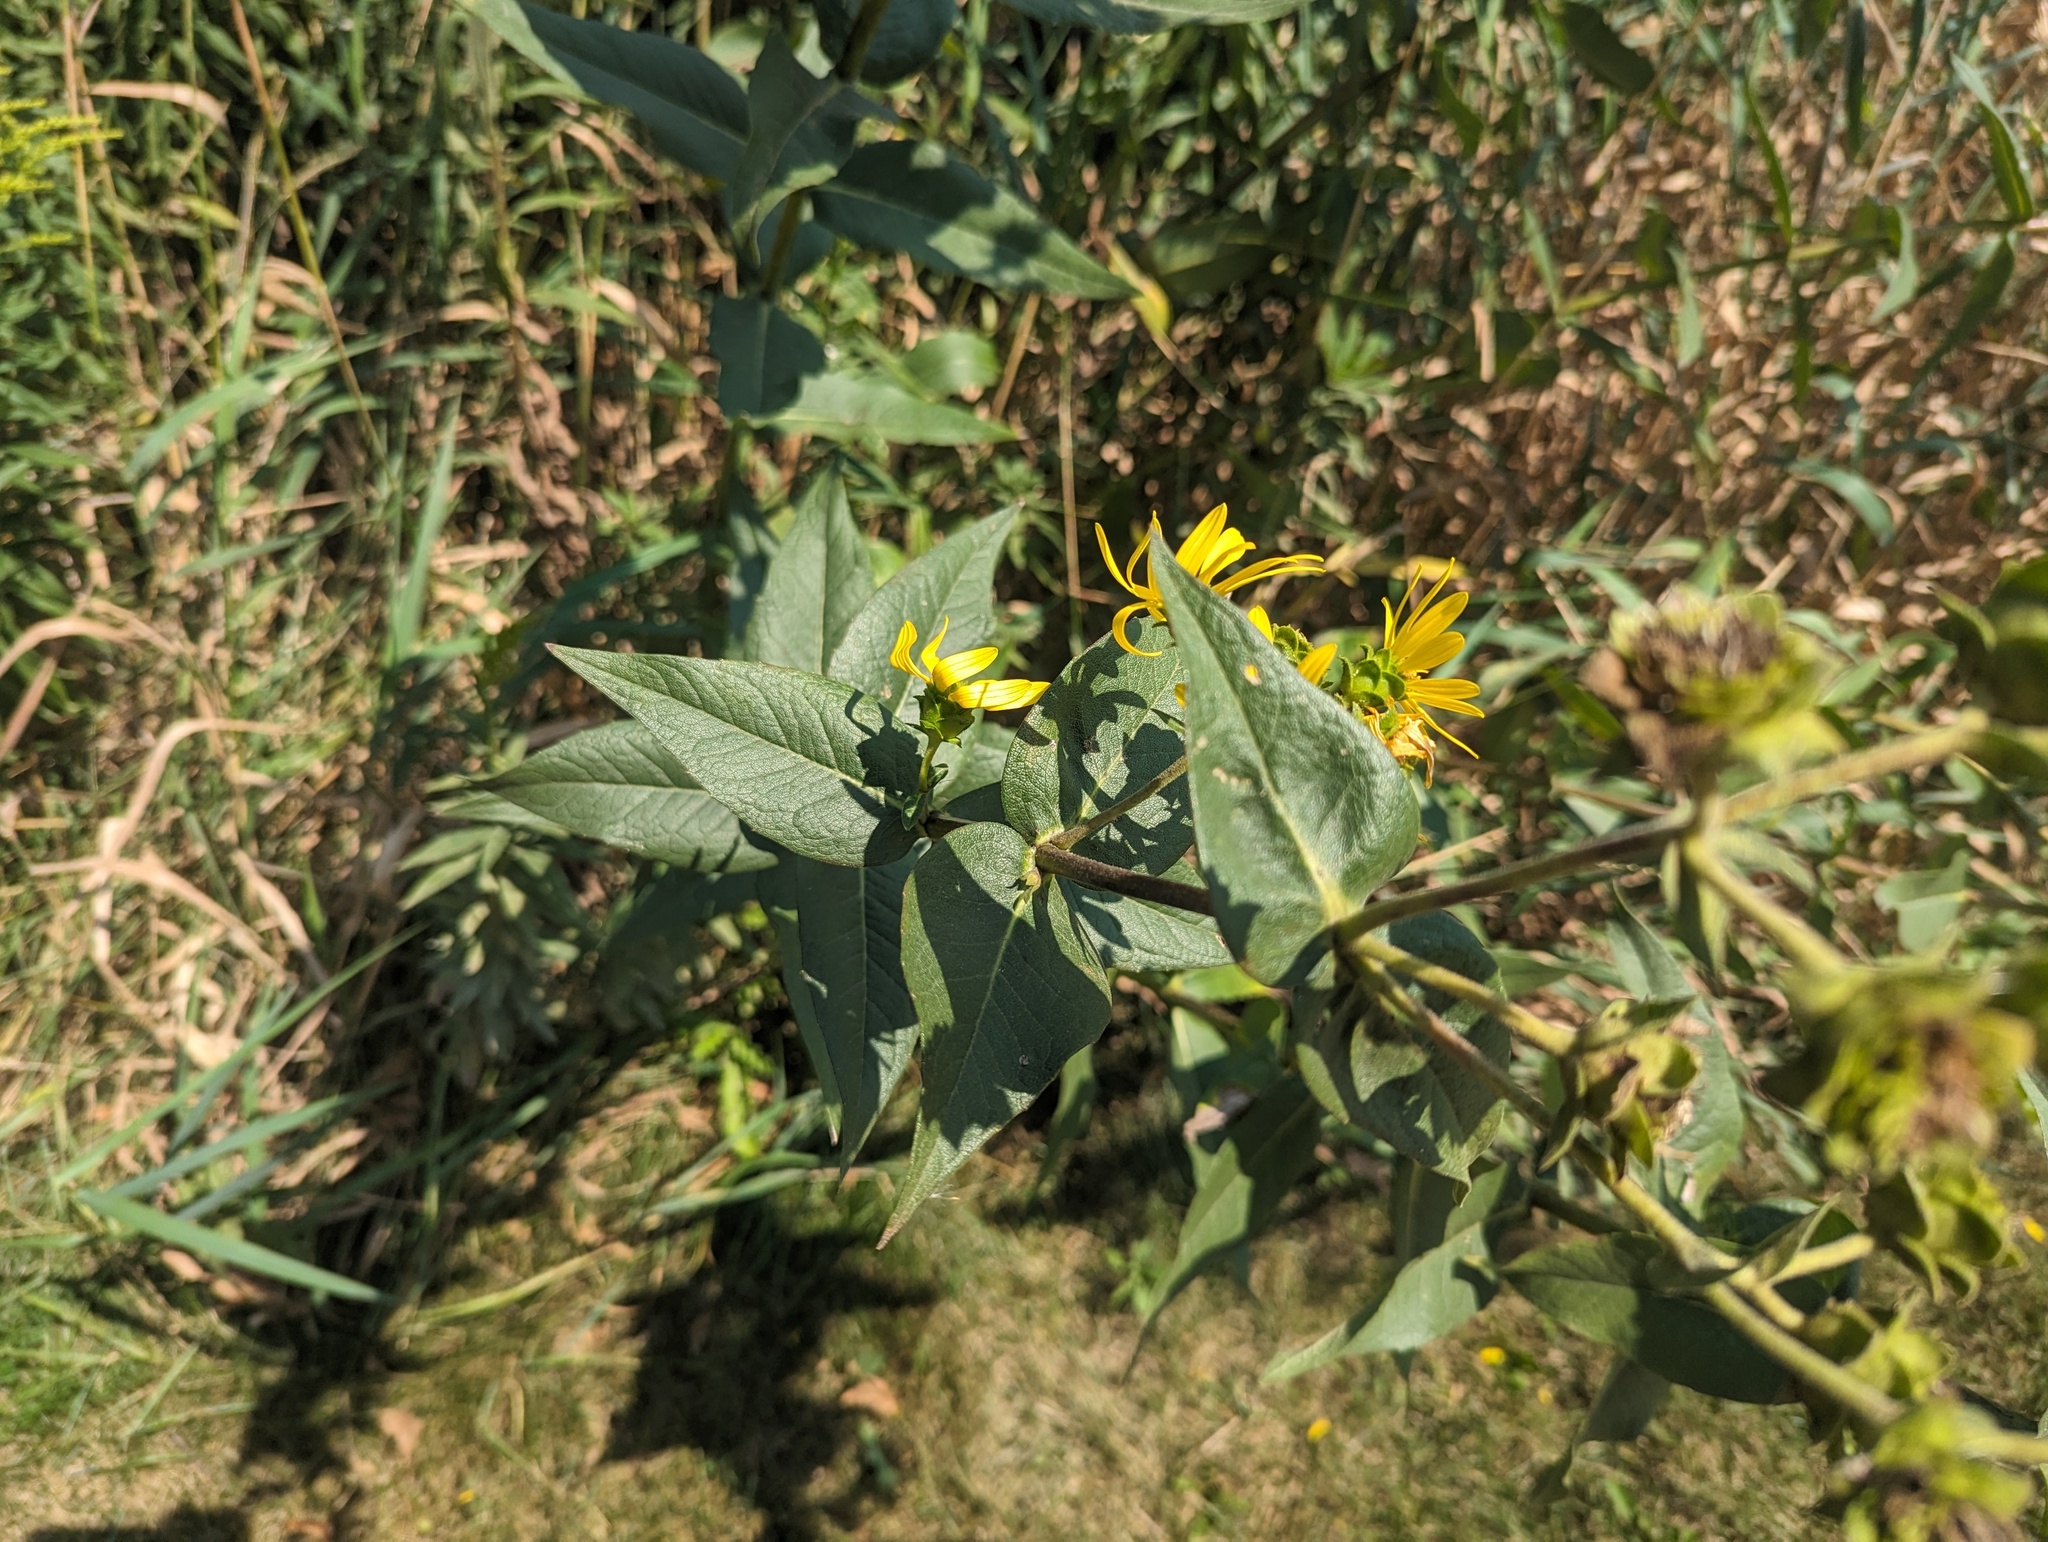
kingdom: Plantae
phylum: Tracheophyta
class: Magnoliopsida
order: Asterales
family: Asteraceae
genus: Silphium
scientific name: Silphium integrifolium
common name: Whole-leaf rosinweed
